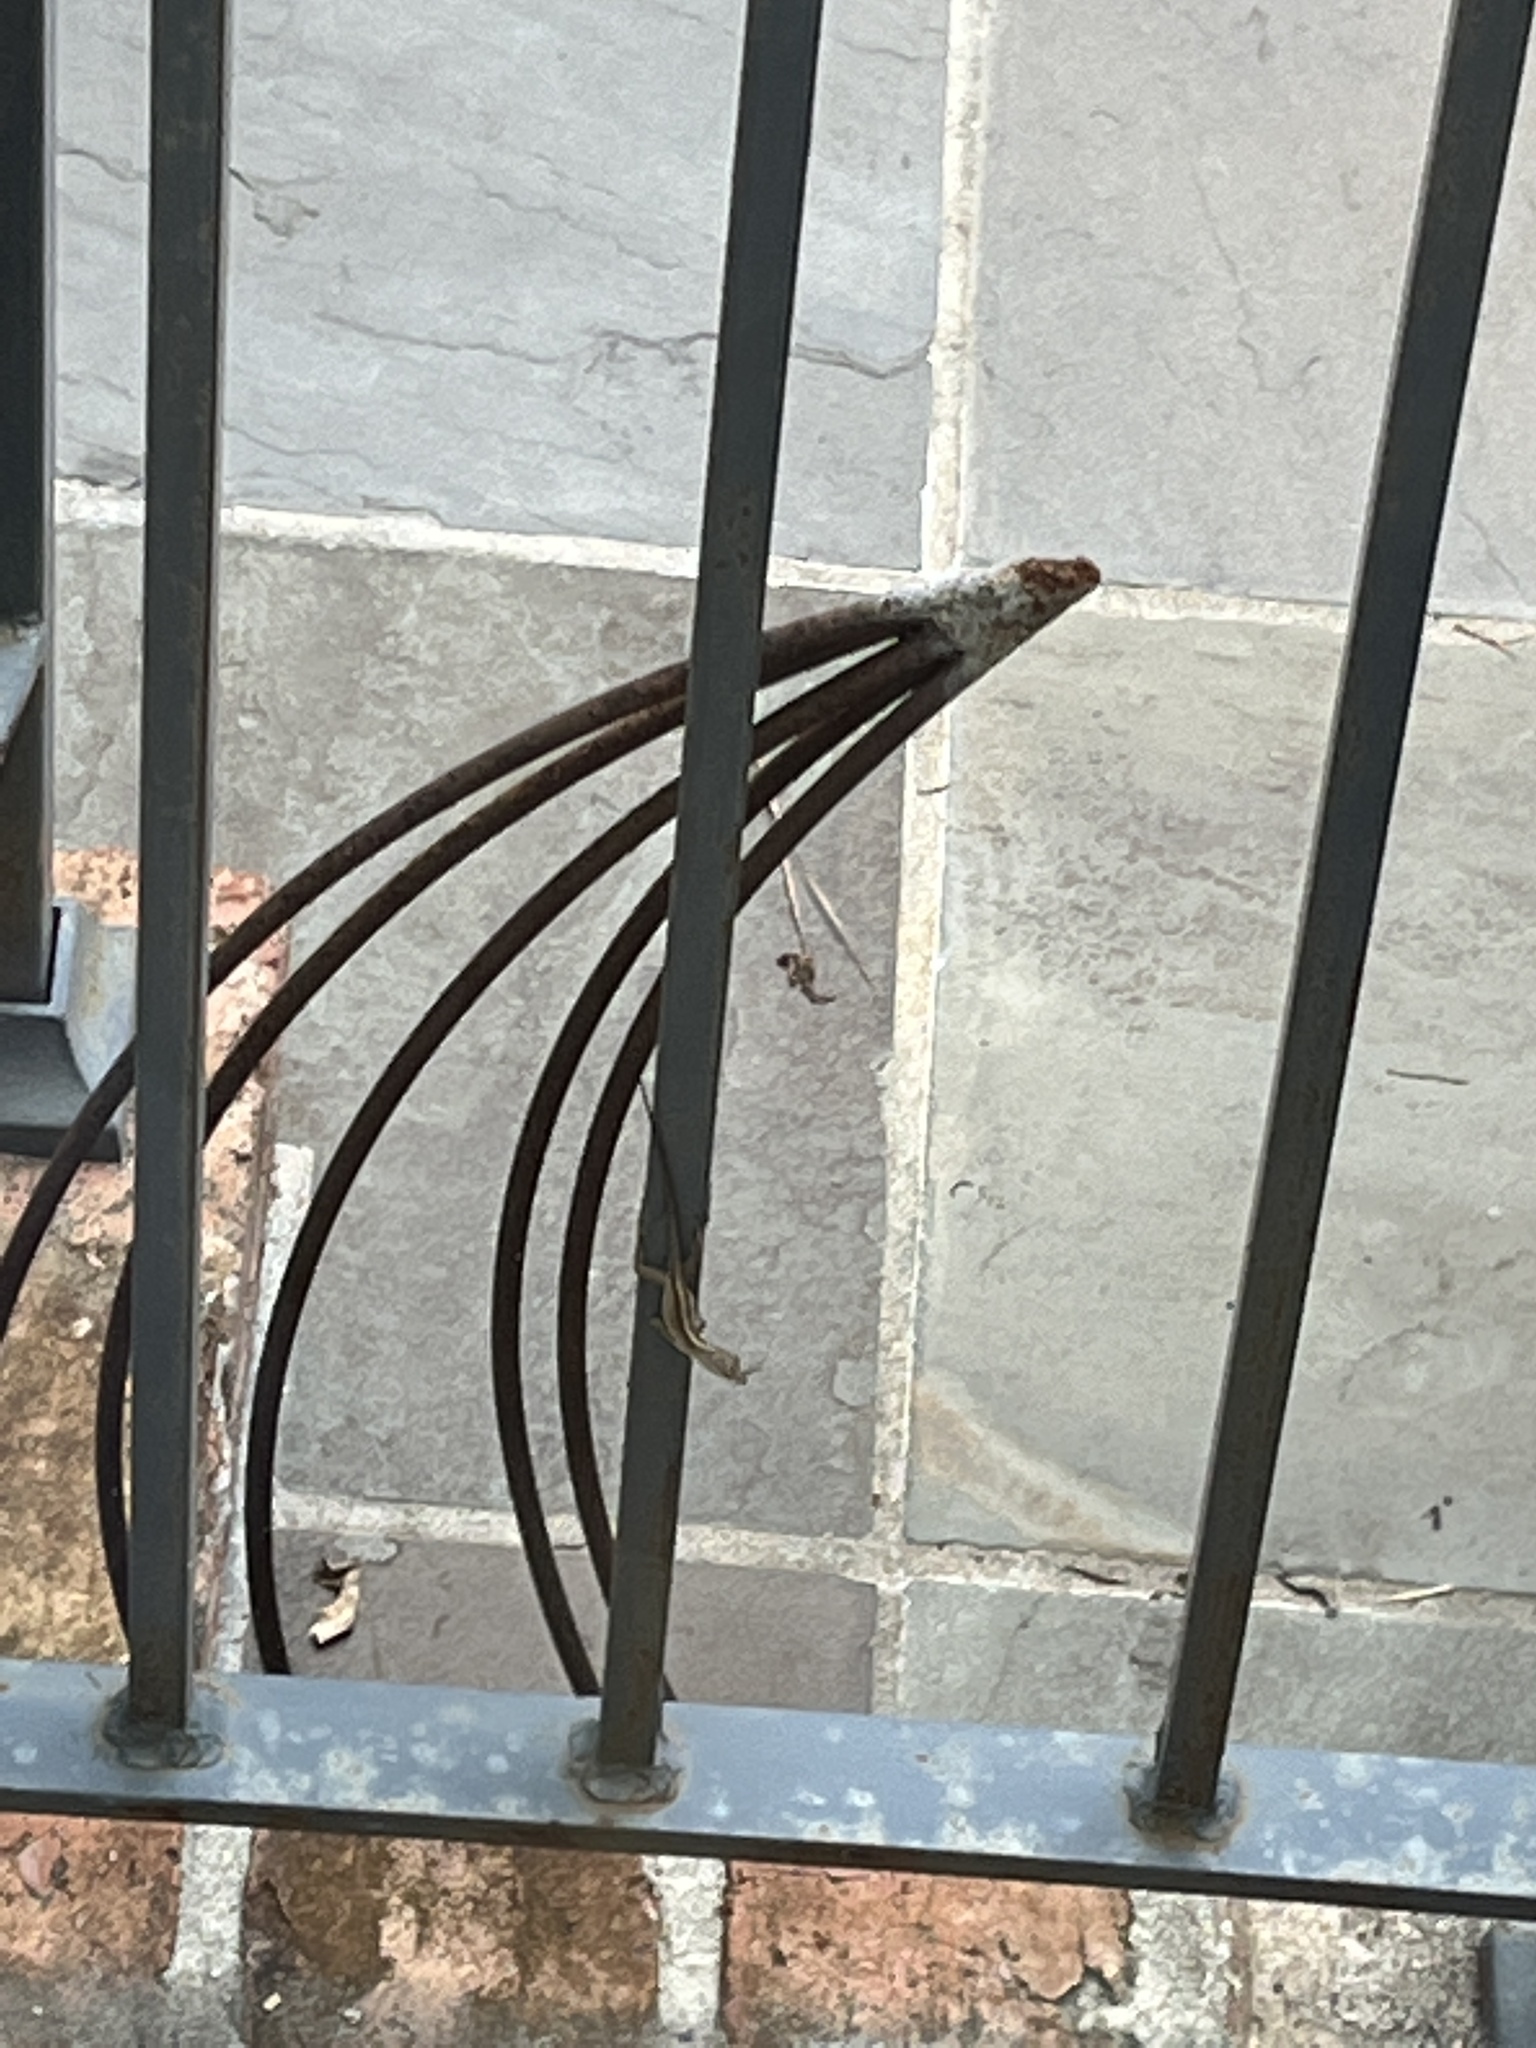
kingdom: Animalia
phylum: Chordata
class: Squamata
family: Dactyloidae
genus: Anolis
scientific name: Anolis sagrei
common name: Brown anole
